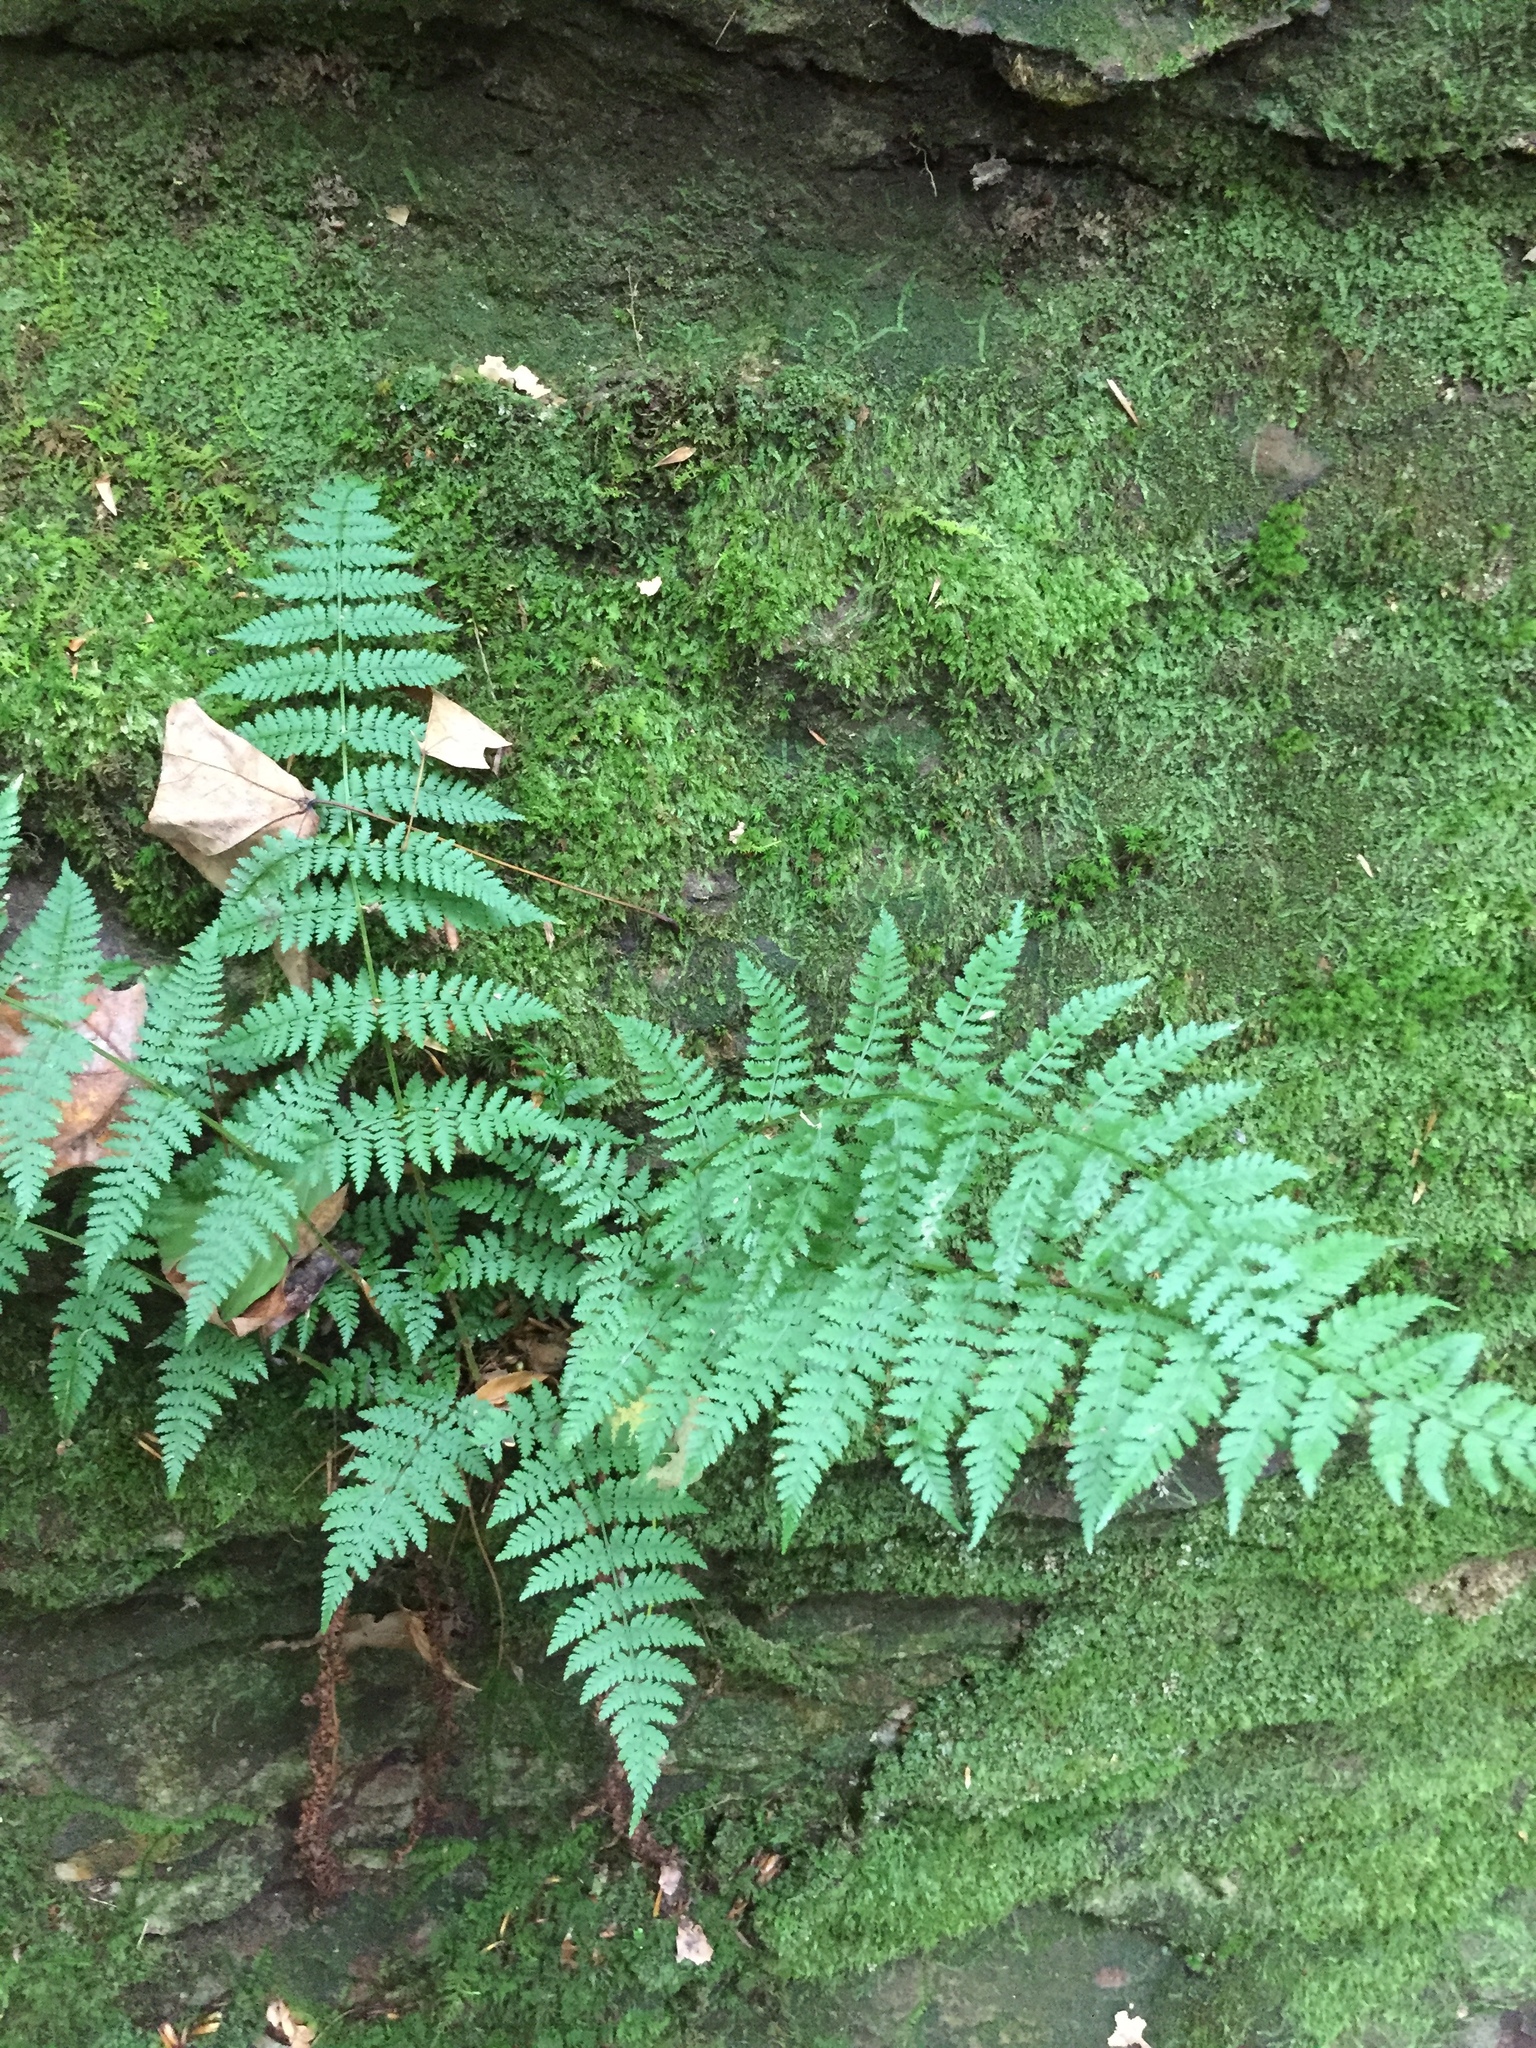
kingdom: Plantae
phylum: Tracheophyta
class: Polypodiopsida
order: Polypodiales
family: Dryopteridaceae
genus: Dryopteris
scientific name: Dryopteris intermedia
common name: Evergreen wood fern
